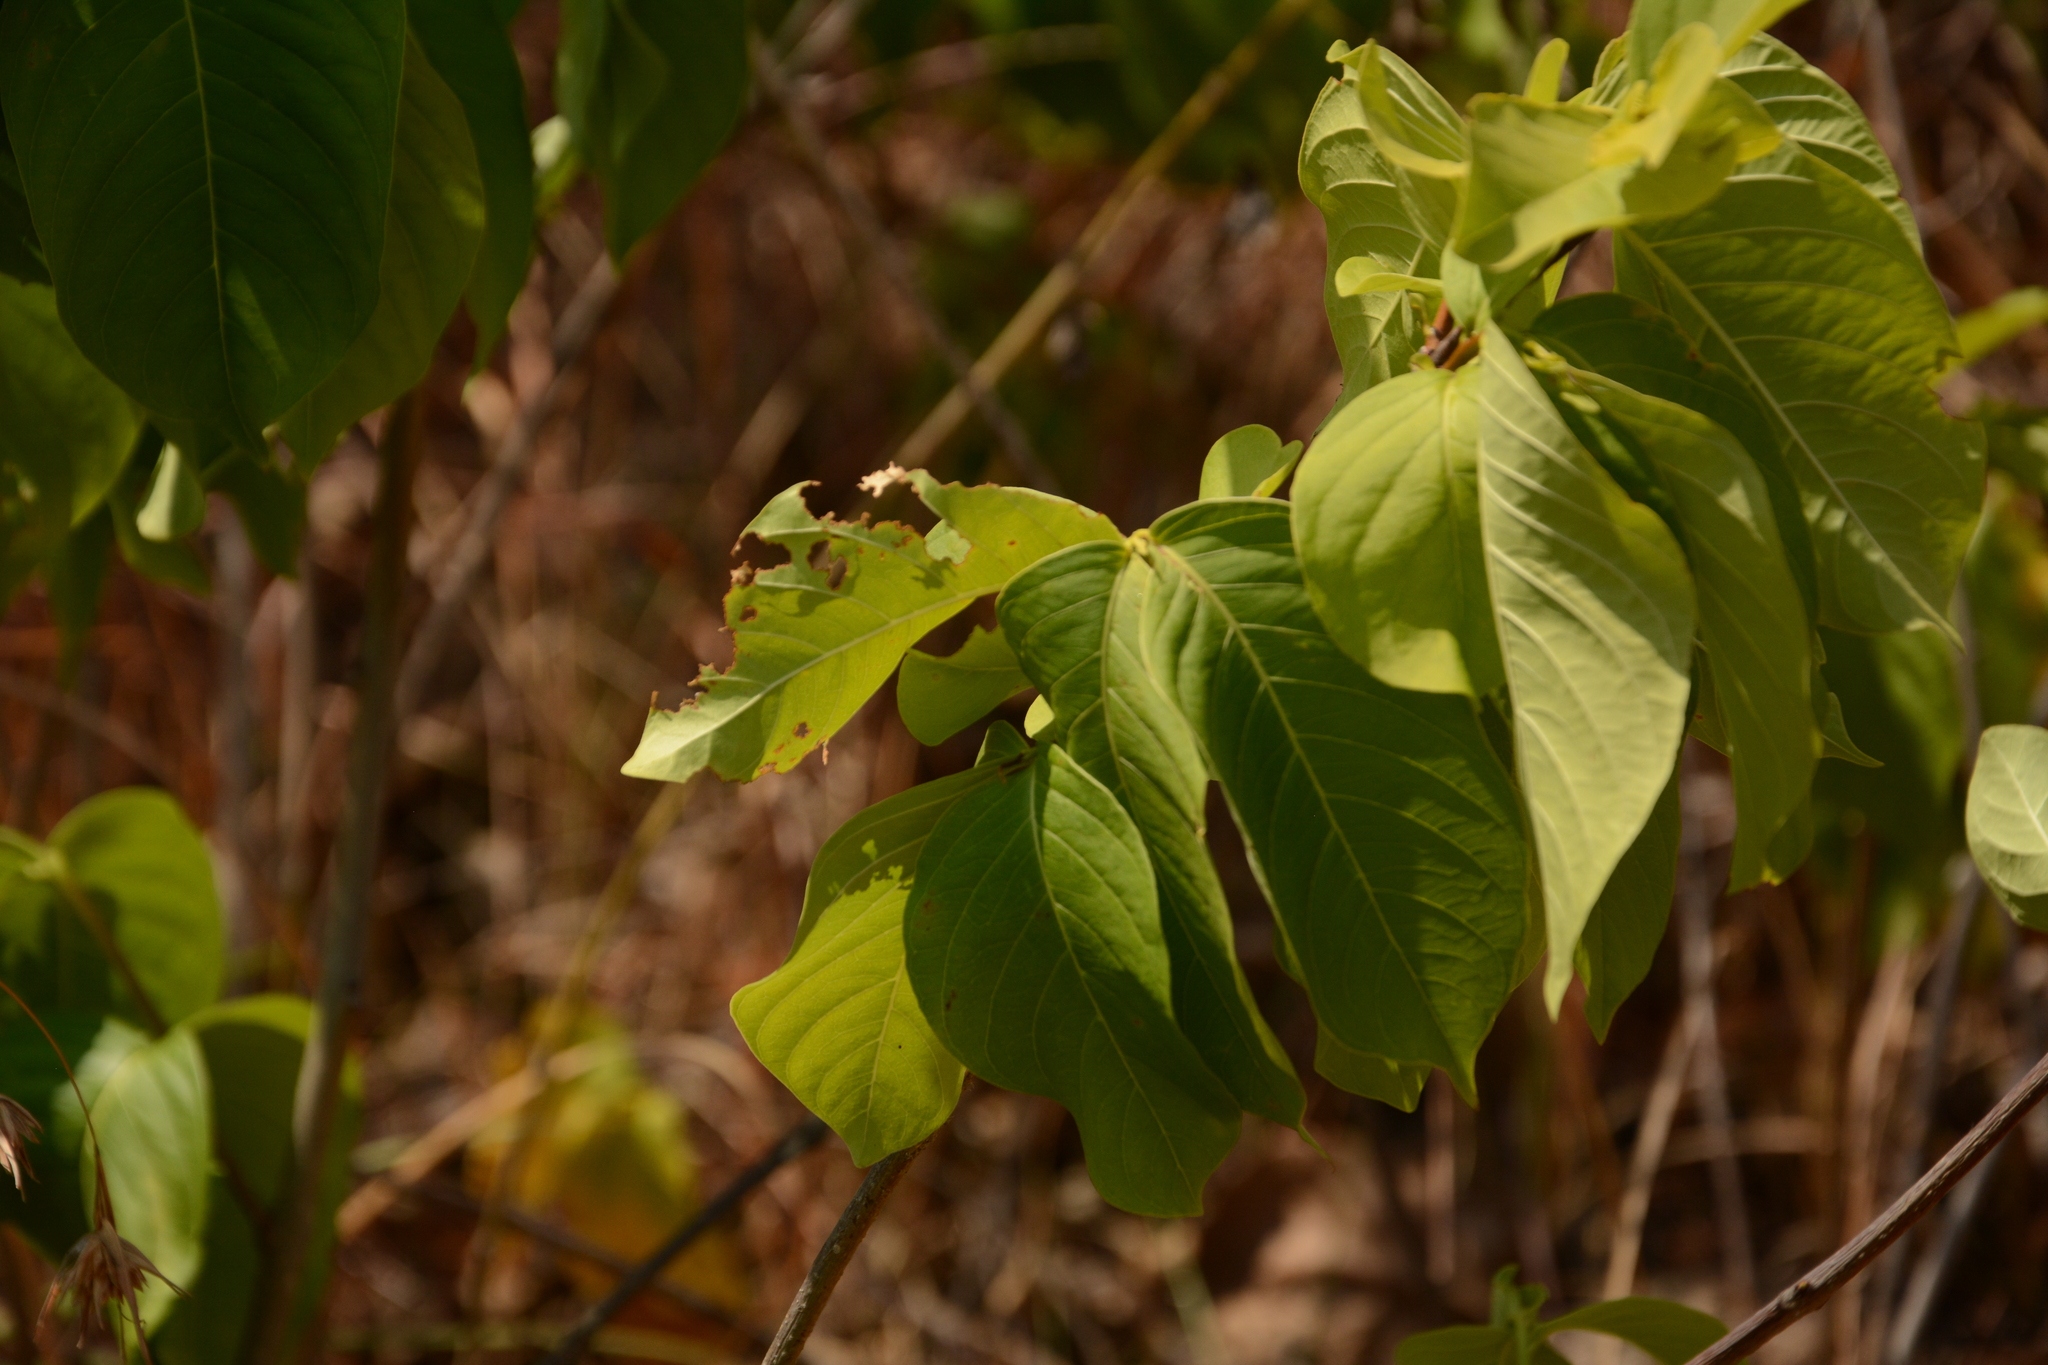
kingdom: Plantae
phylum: Tracheophyta
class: Magnoliopsida
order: Gentianales
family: Apocynaceae
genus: Holarrhena
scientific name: Holarrhena pubescens
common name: Bitter oleander
